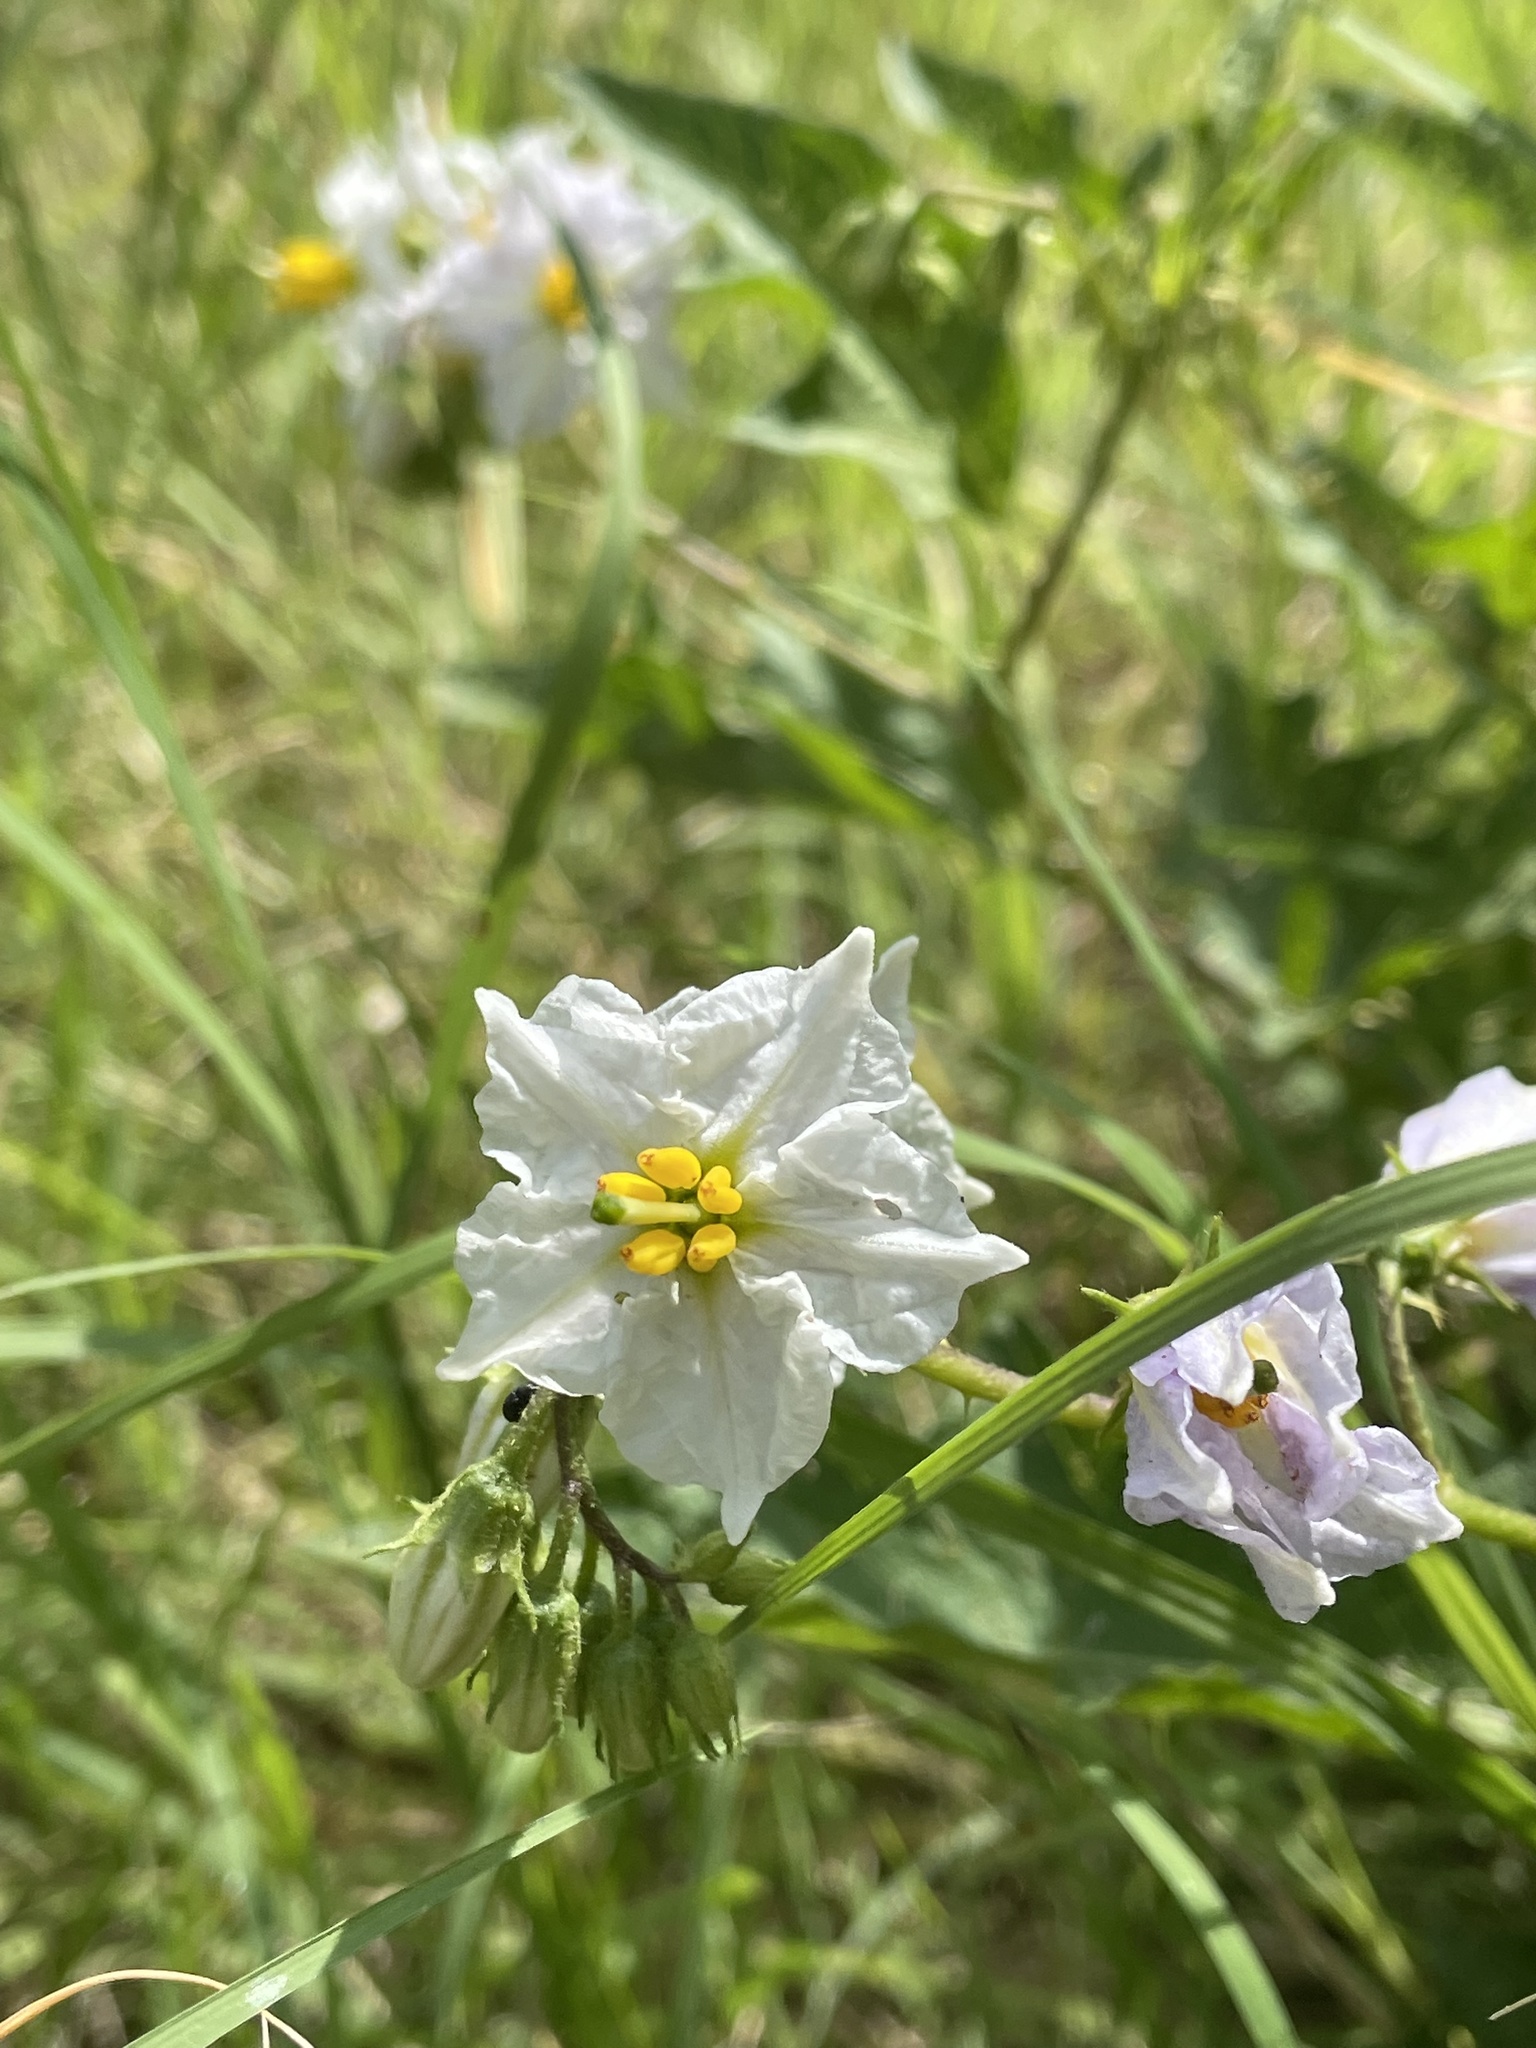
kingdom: Plantae
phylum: Tracheophyta
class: Magnoliopsida
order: Solanales
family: Solanaceae
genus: Solanum
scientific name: Solanum carolinense
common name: Horse-nettle
